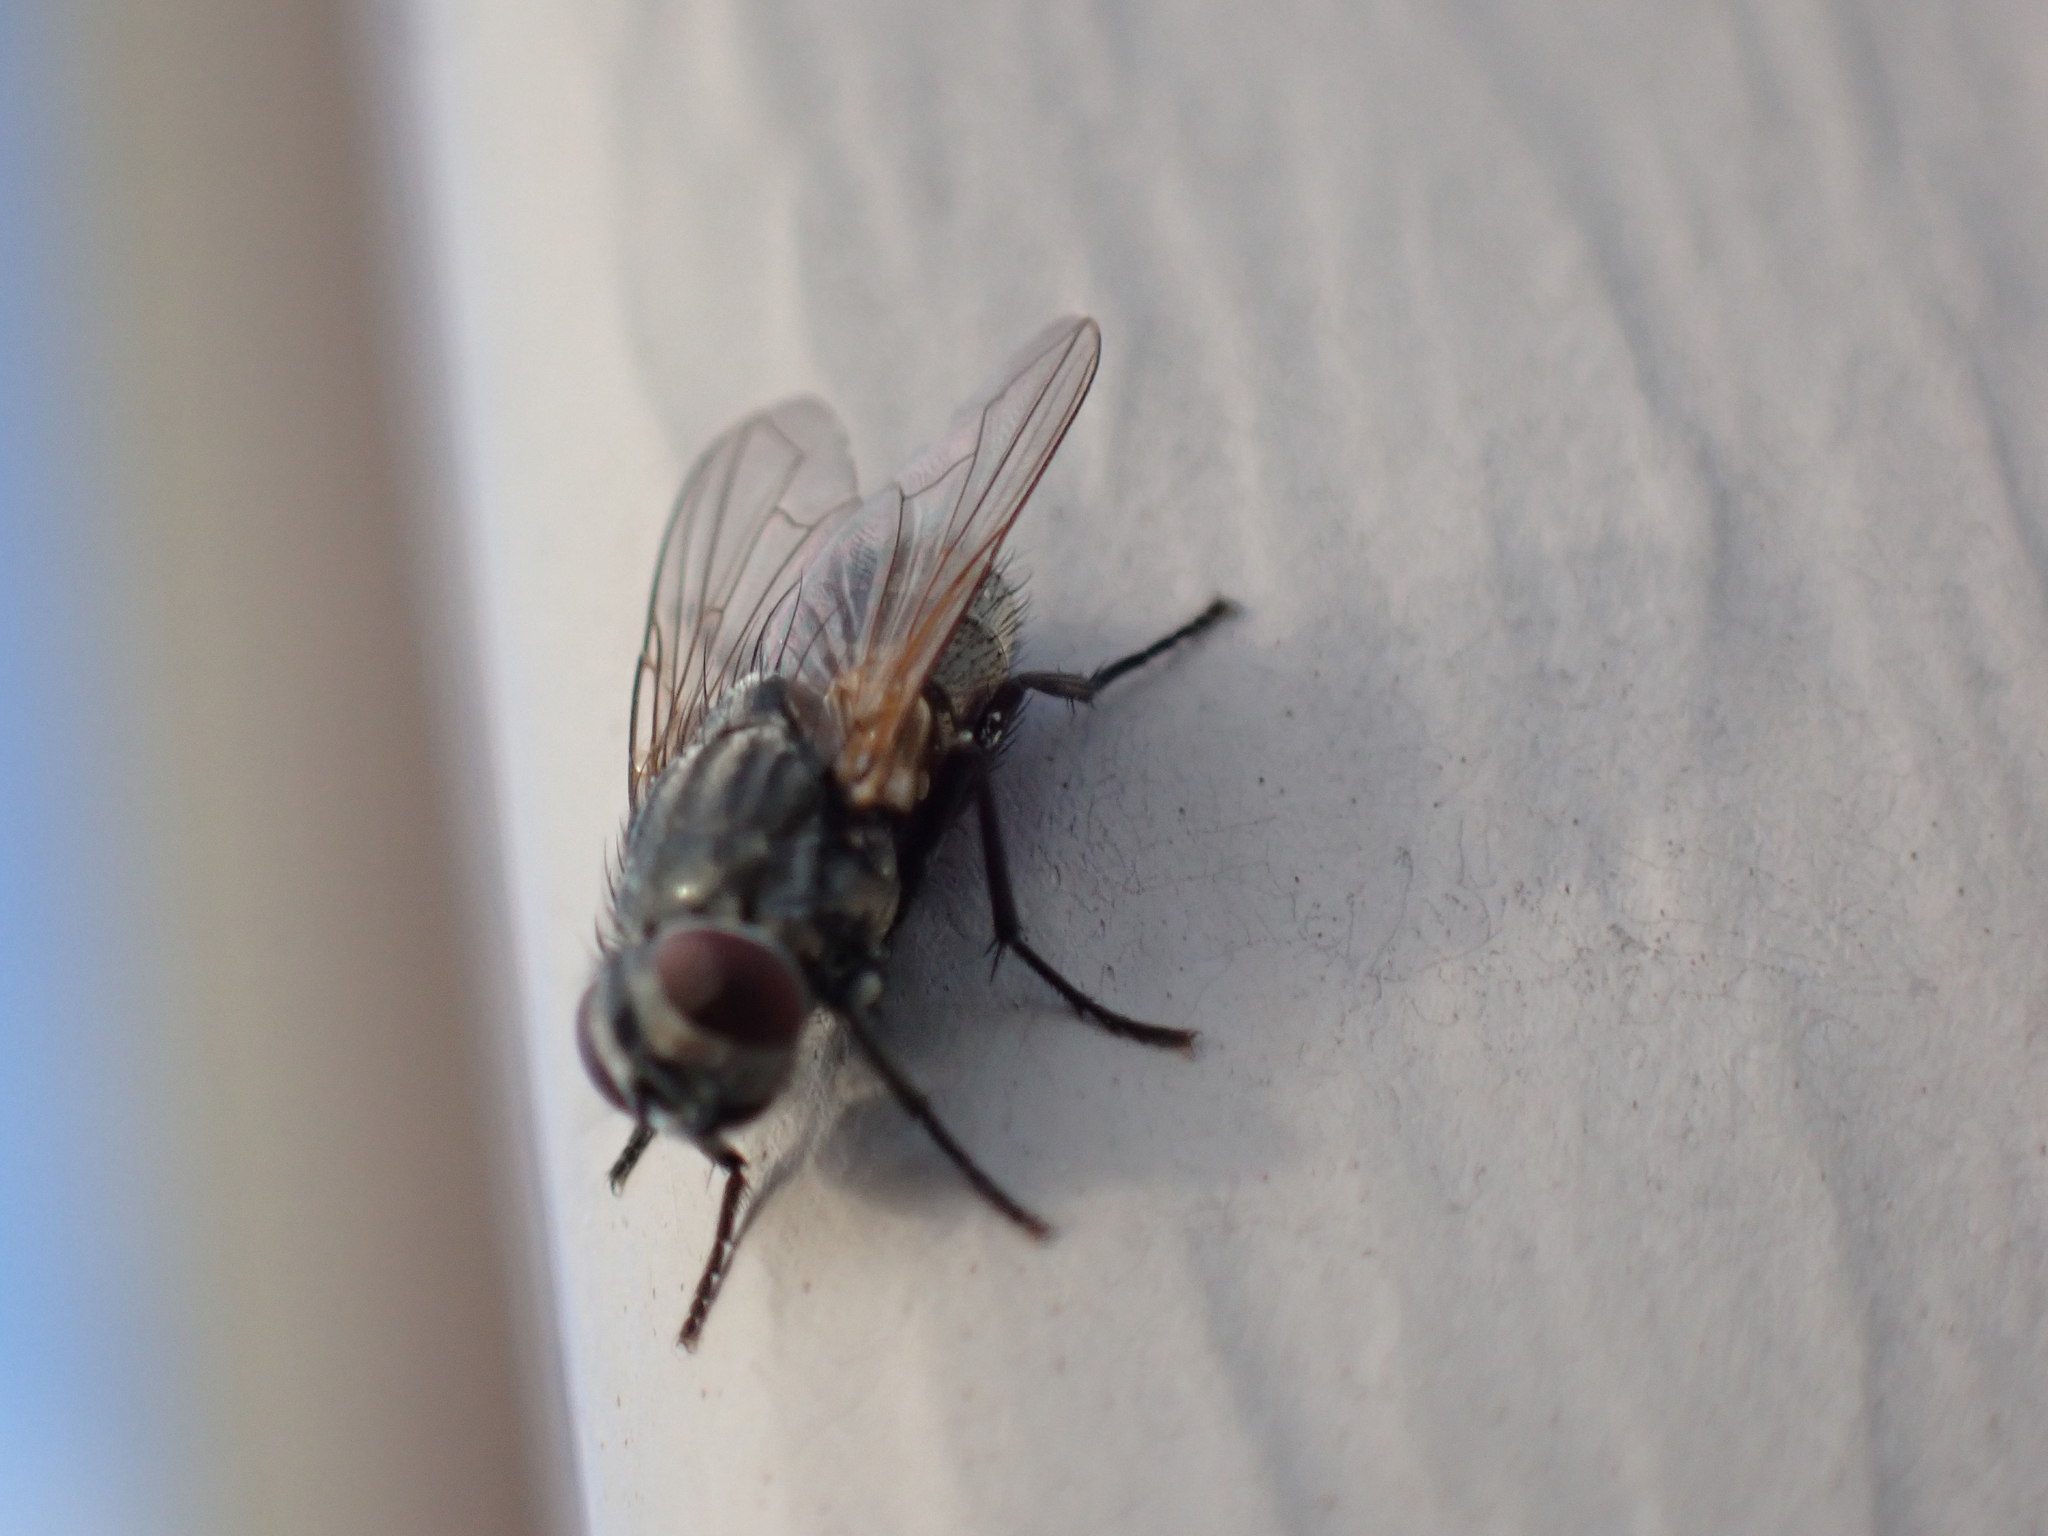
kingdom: Animalia
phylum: Arthropoda
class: Insecta
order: Diptera
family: Muscidae
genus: Musca
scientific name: Musca autumnalis
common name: Face fly
